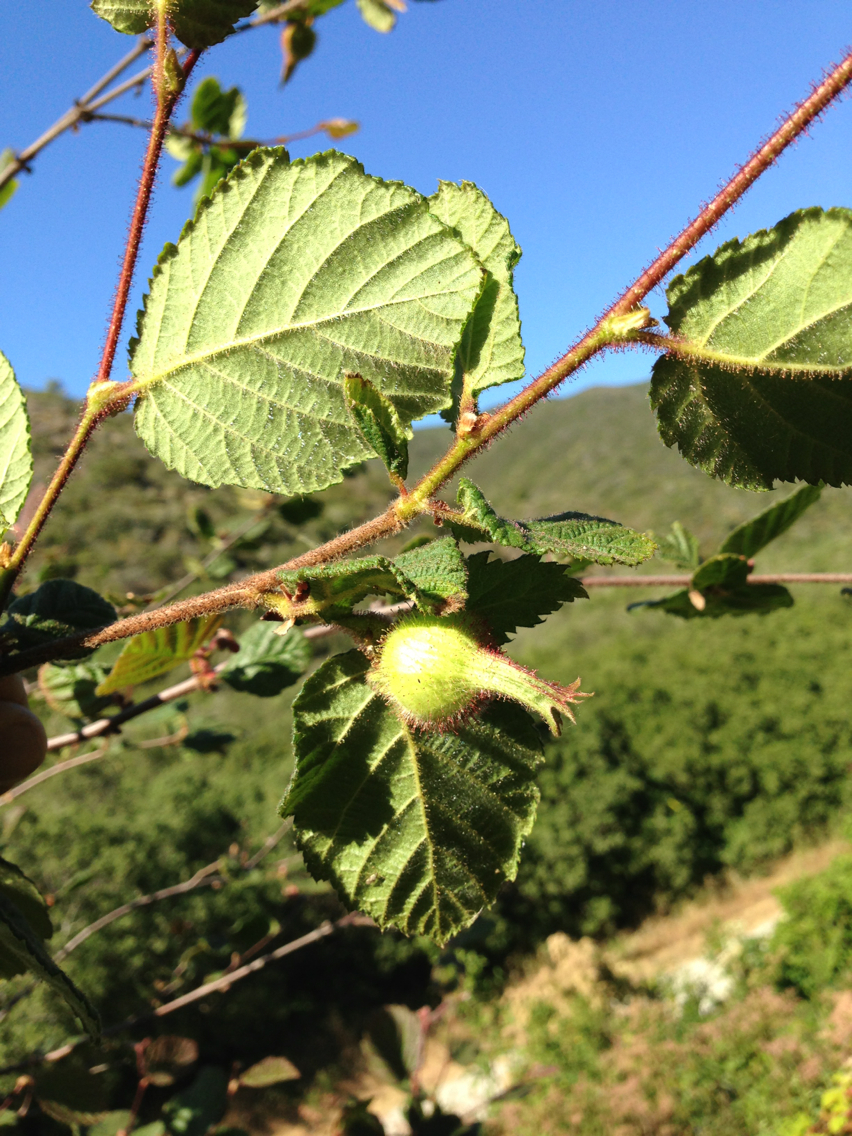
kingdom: Plantae
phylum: Tracheophyta
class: Magnoliopsida
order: Fagales
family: Betulaceae
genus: Corylus
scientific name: Corylus cornuta
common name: Beaked hazel
